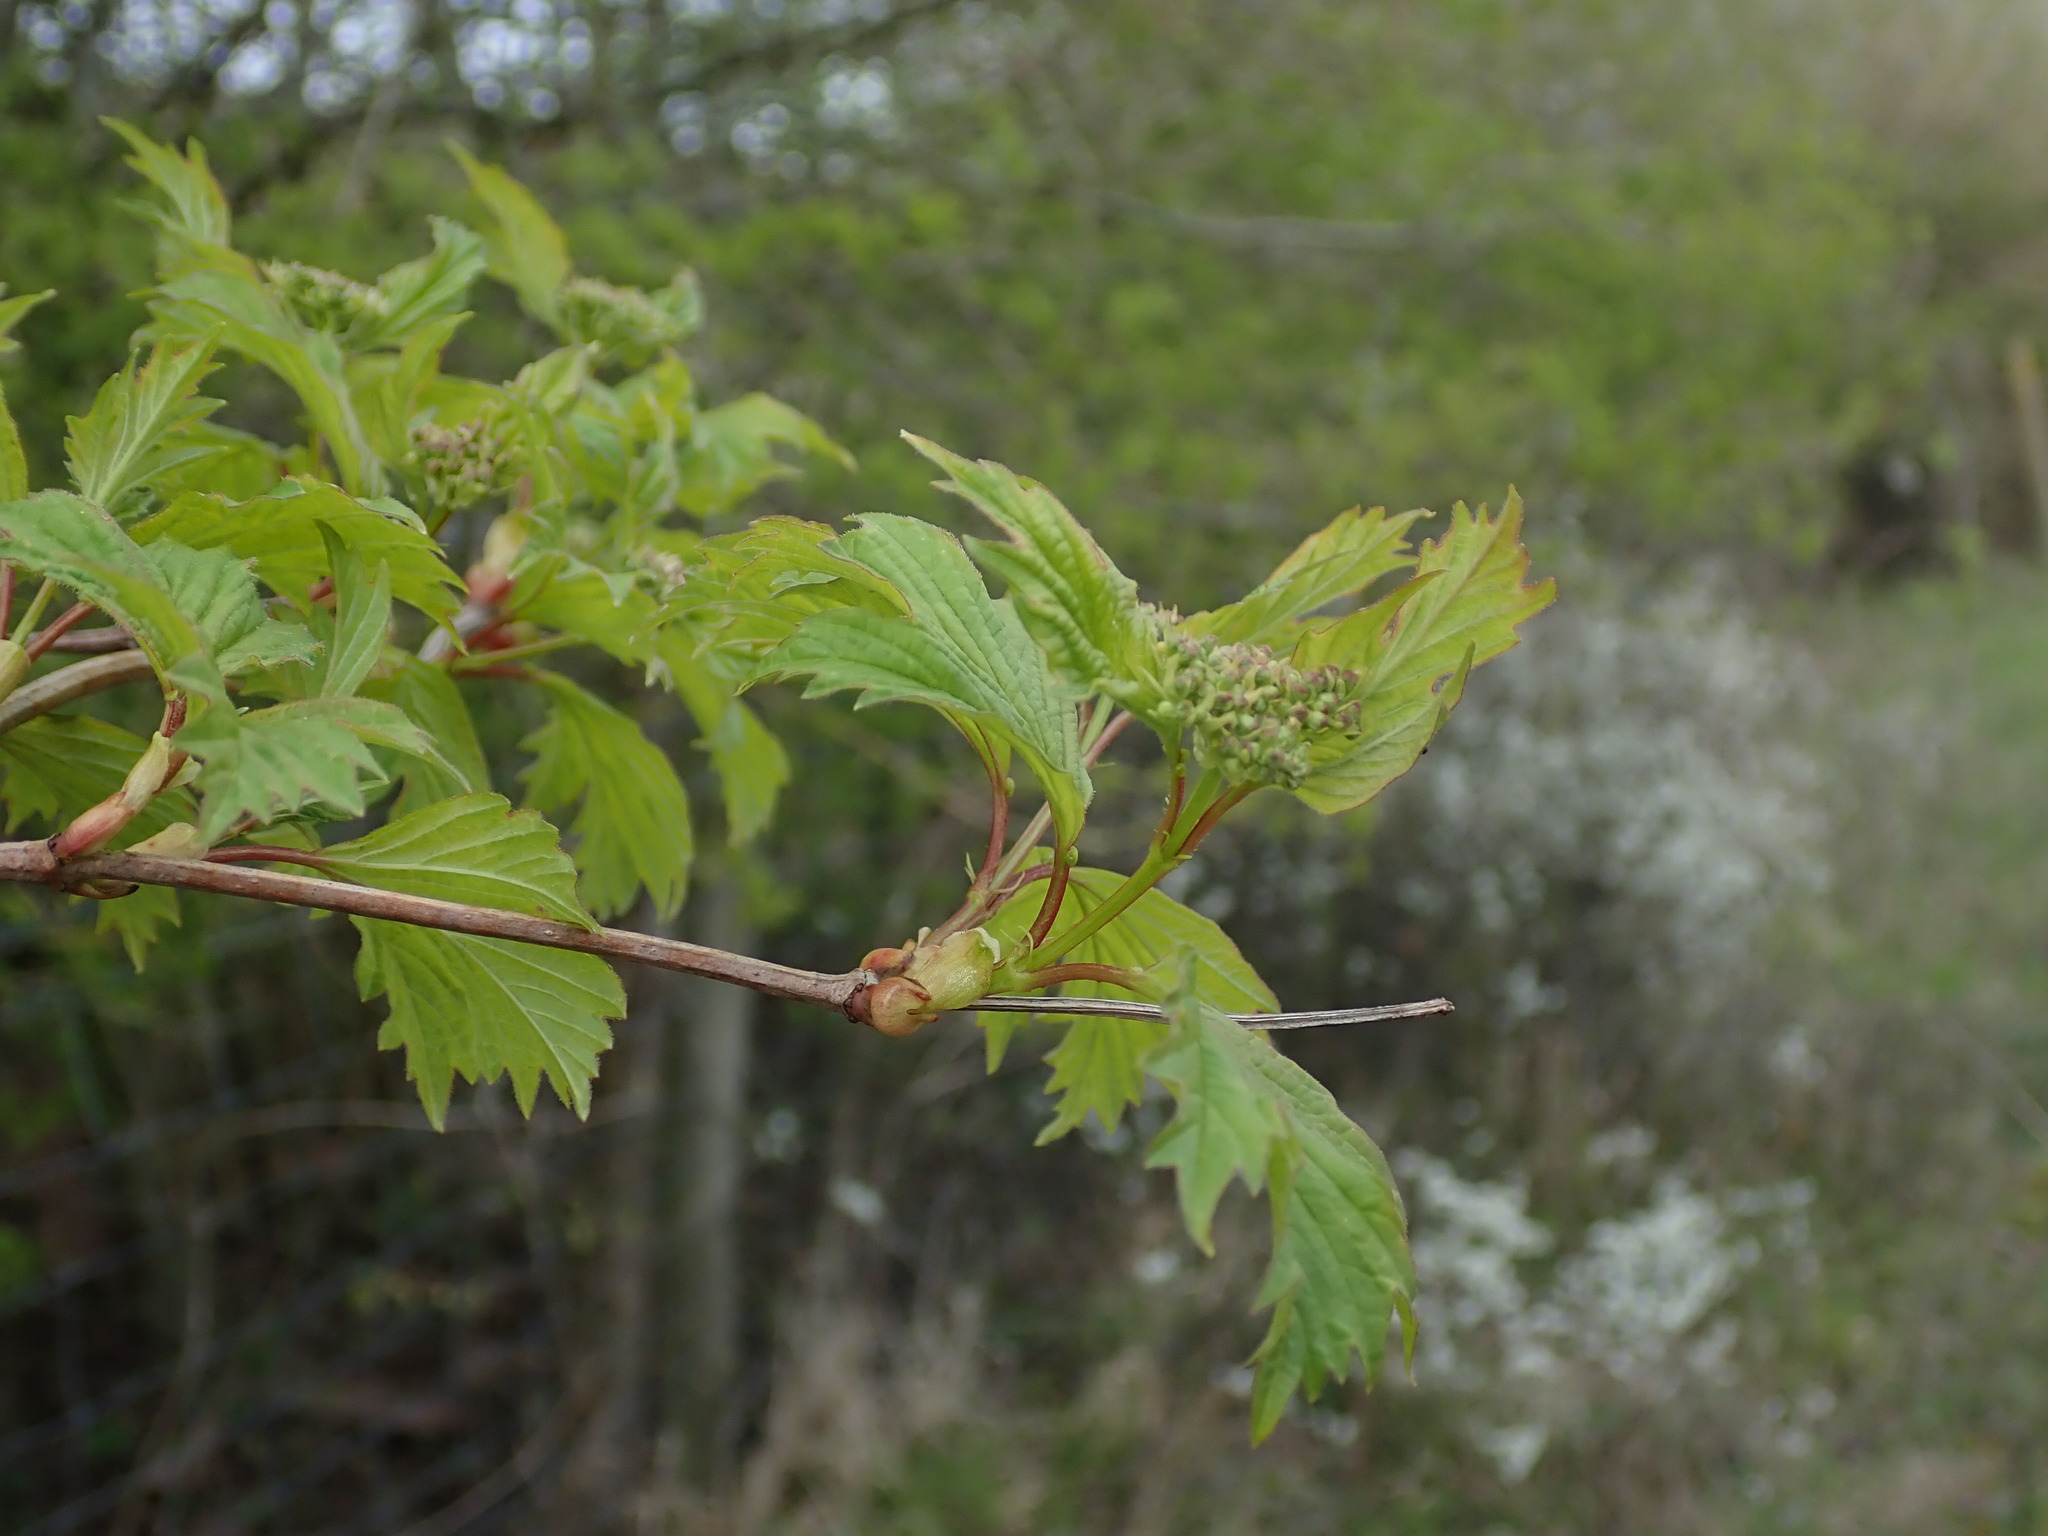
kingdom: Plantae
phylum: Tracheophyta
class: Magnoliopsida
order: Dipsacales
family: Viburnaceae
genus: Viburnum
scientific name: Viburnum opulus
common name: Guelder-rose
